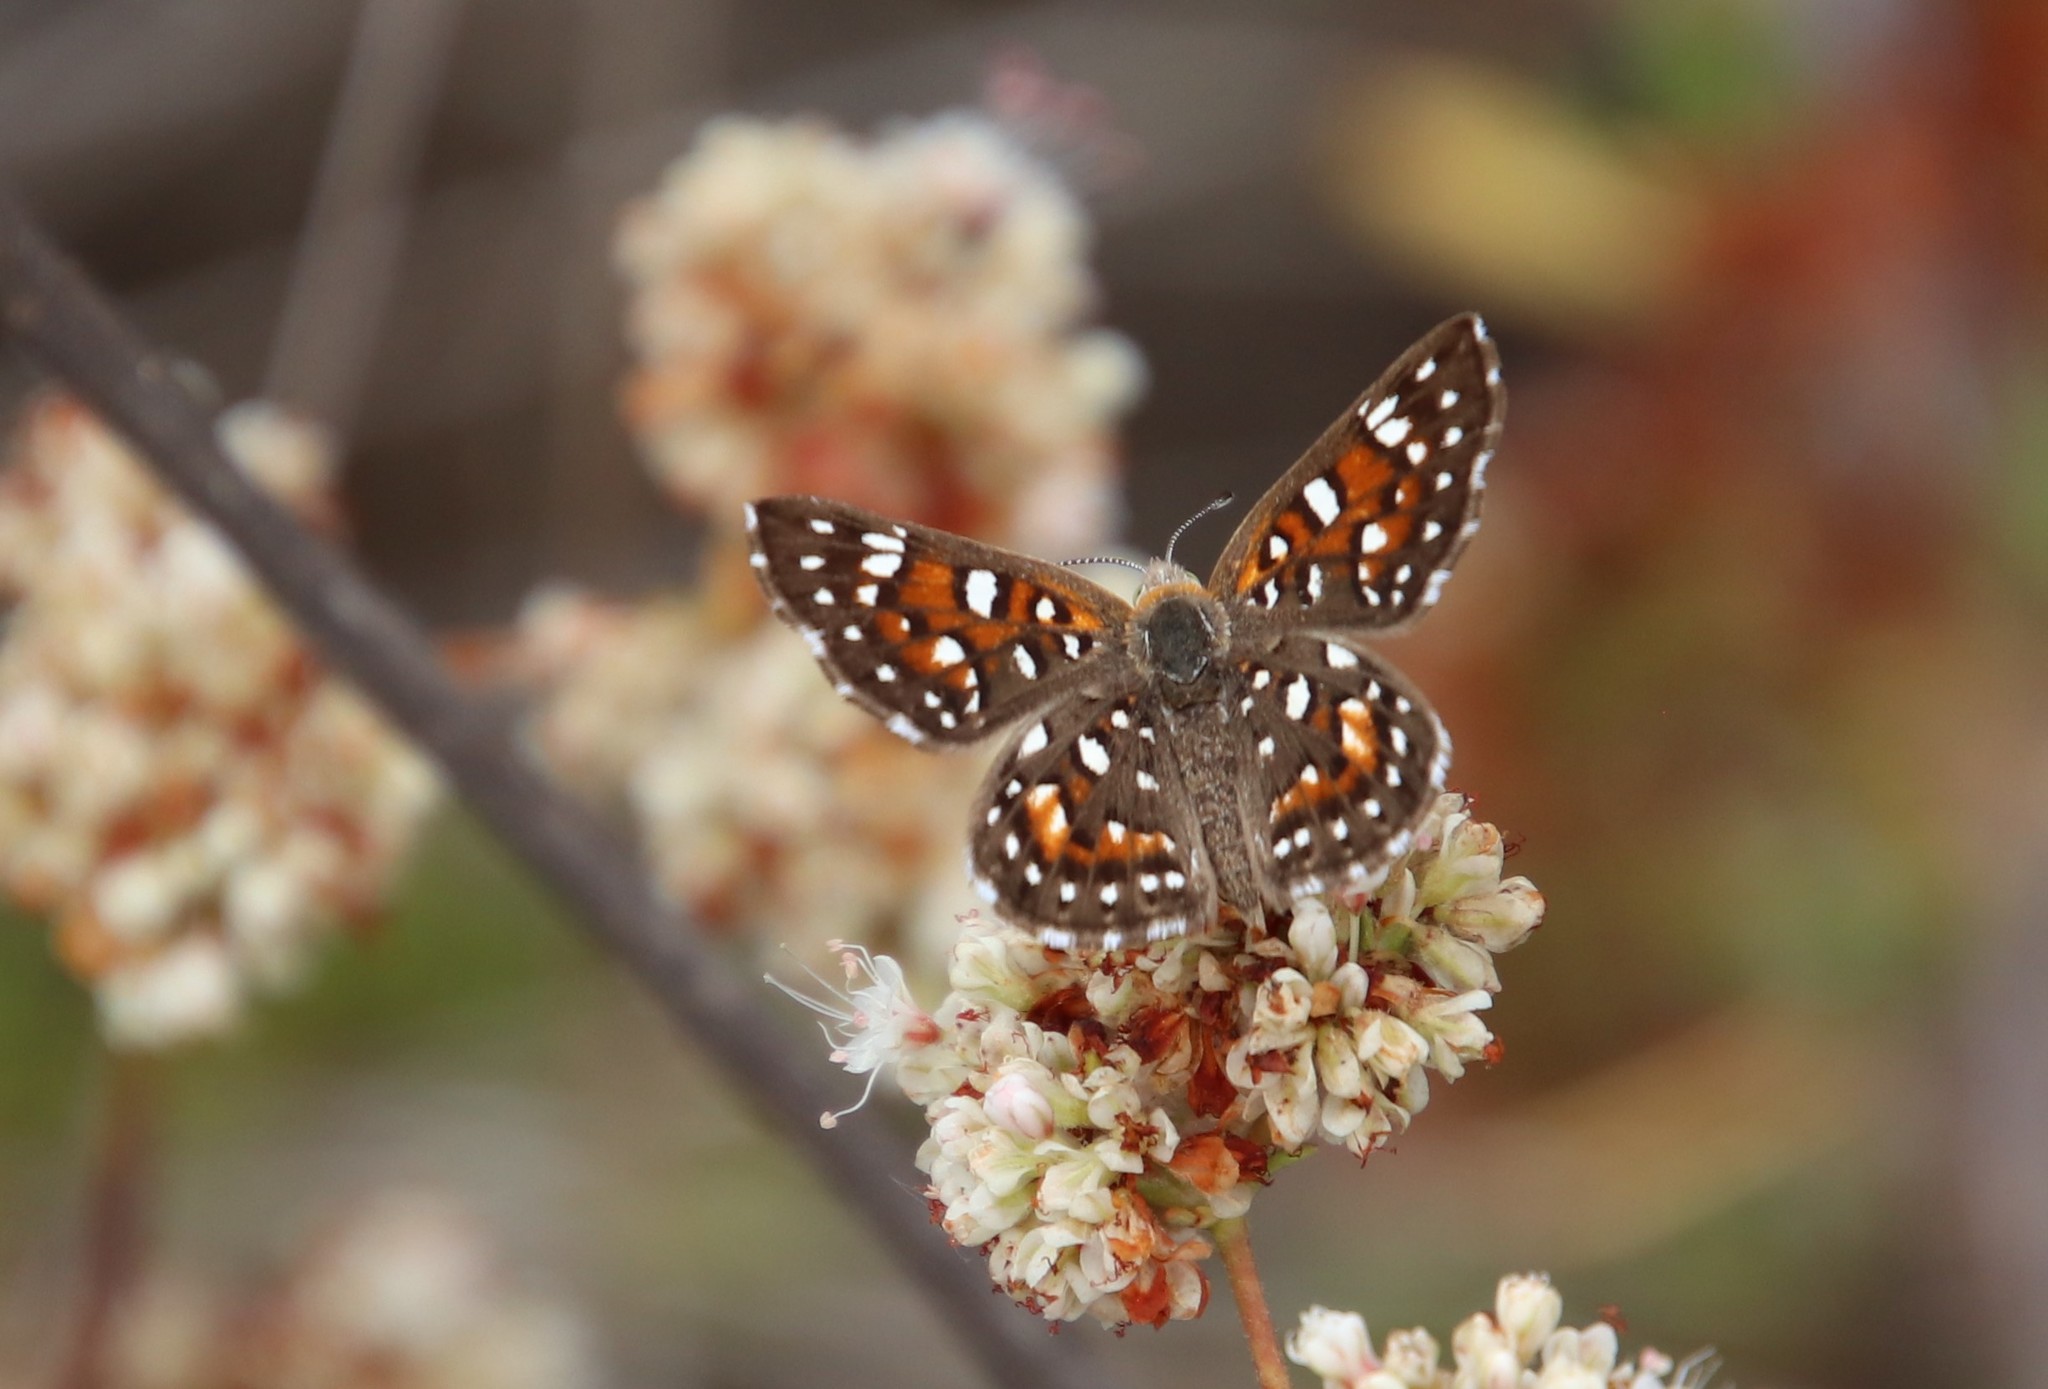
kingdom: Animalia
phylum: Arthropoda
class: Insecta
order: Lepidoptera
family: Riodinidae
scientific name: Riodinidae
